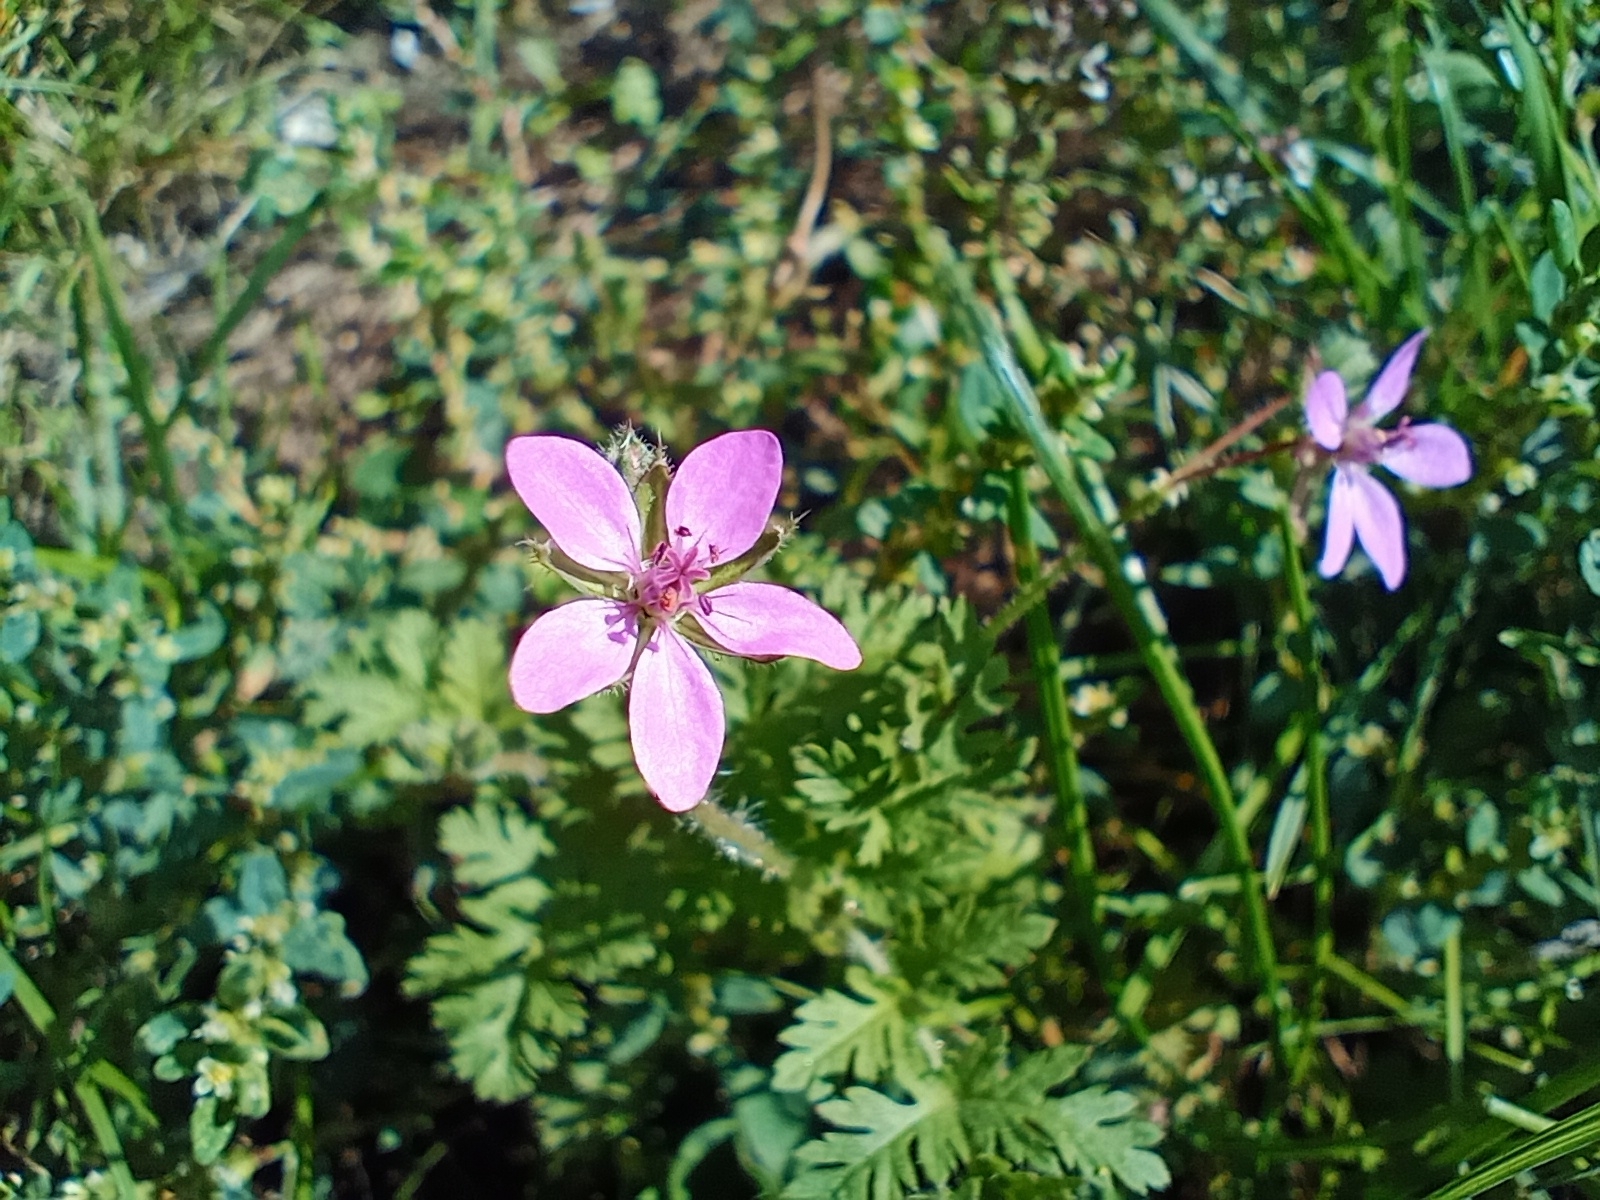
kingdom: Plantae
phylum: Tracheophyta
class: Magnoliopsida
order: Geraniales
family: Geraniaceae
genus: Erodium
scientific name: Erodium cicutarium
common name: Common stork's-bill
